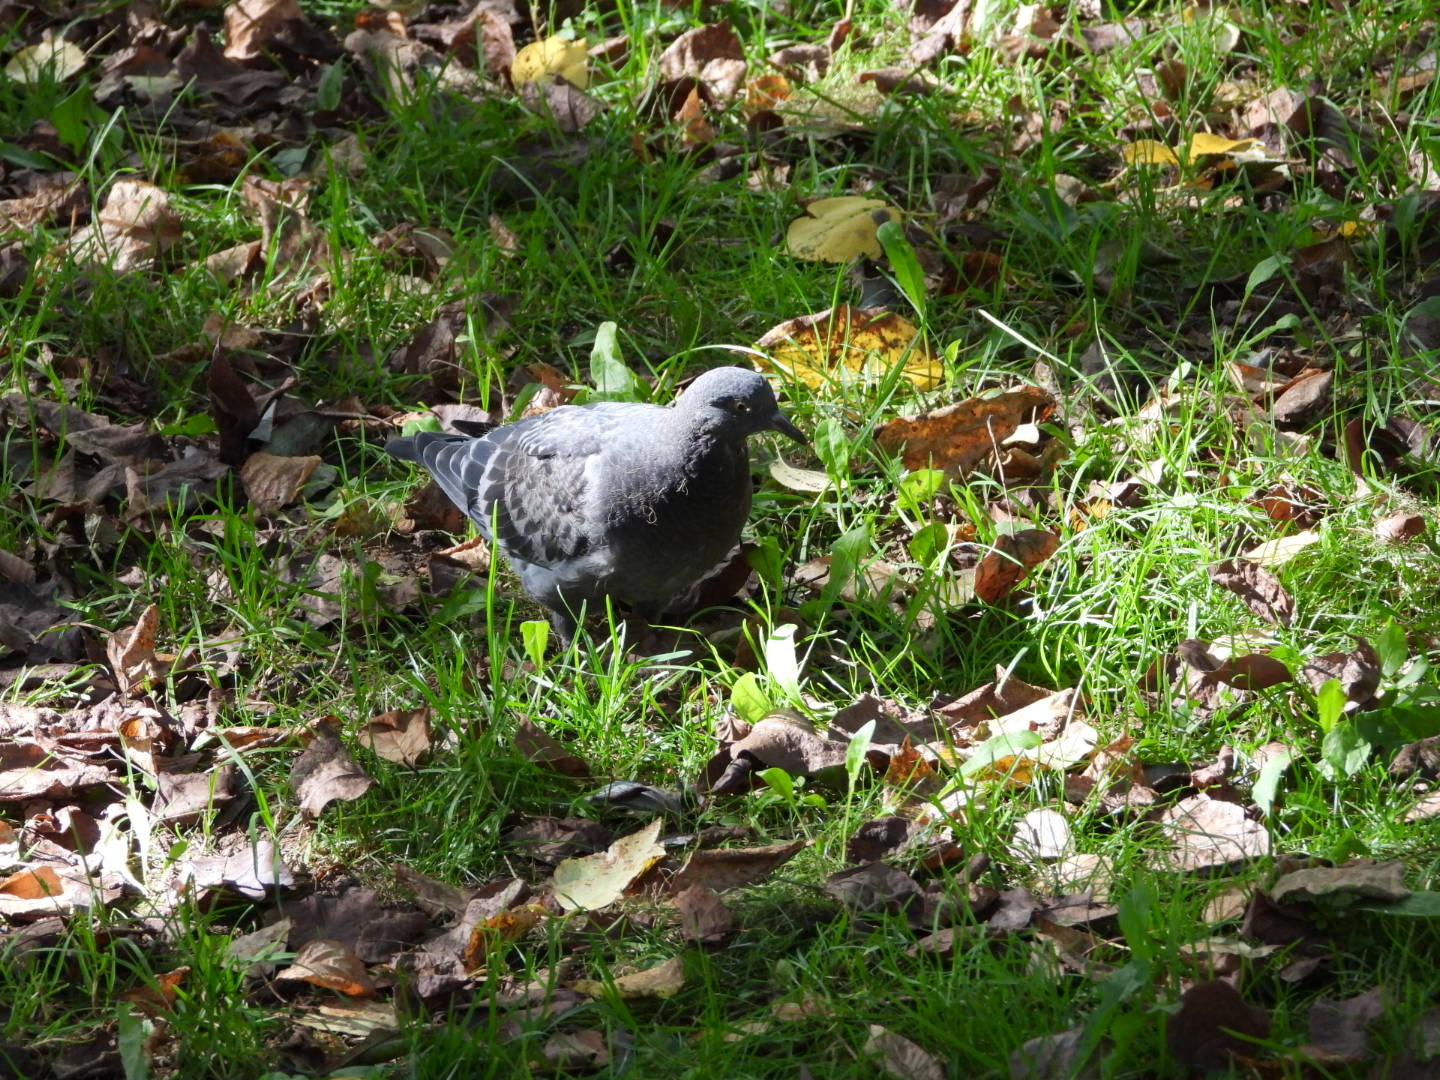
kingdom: Animalia
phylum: Chordata
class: Aves
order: Columbiformes
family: Columbidae
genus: Columba
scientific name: Columba livia
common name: Rock pigeon
